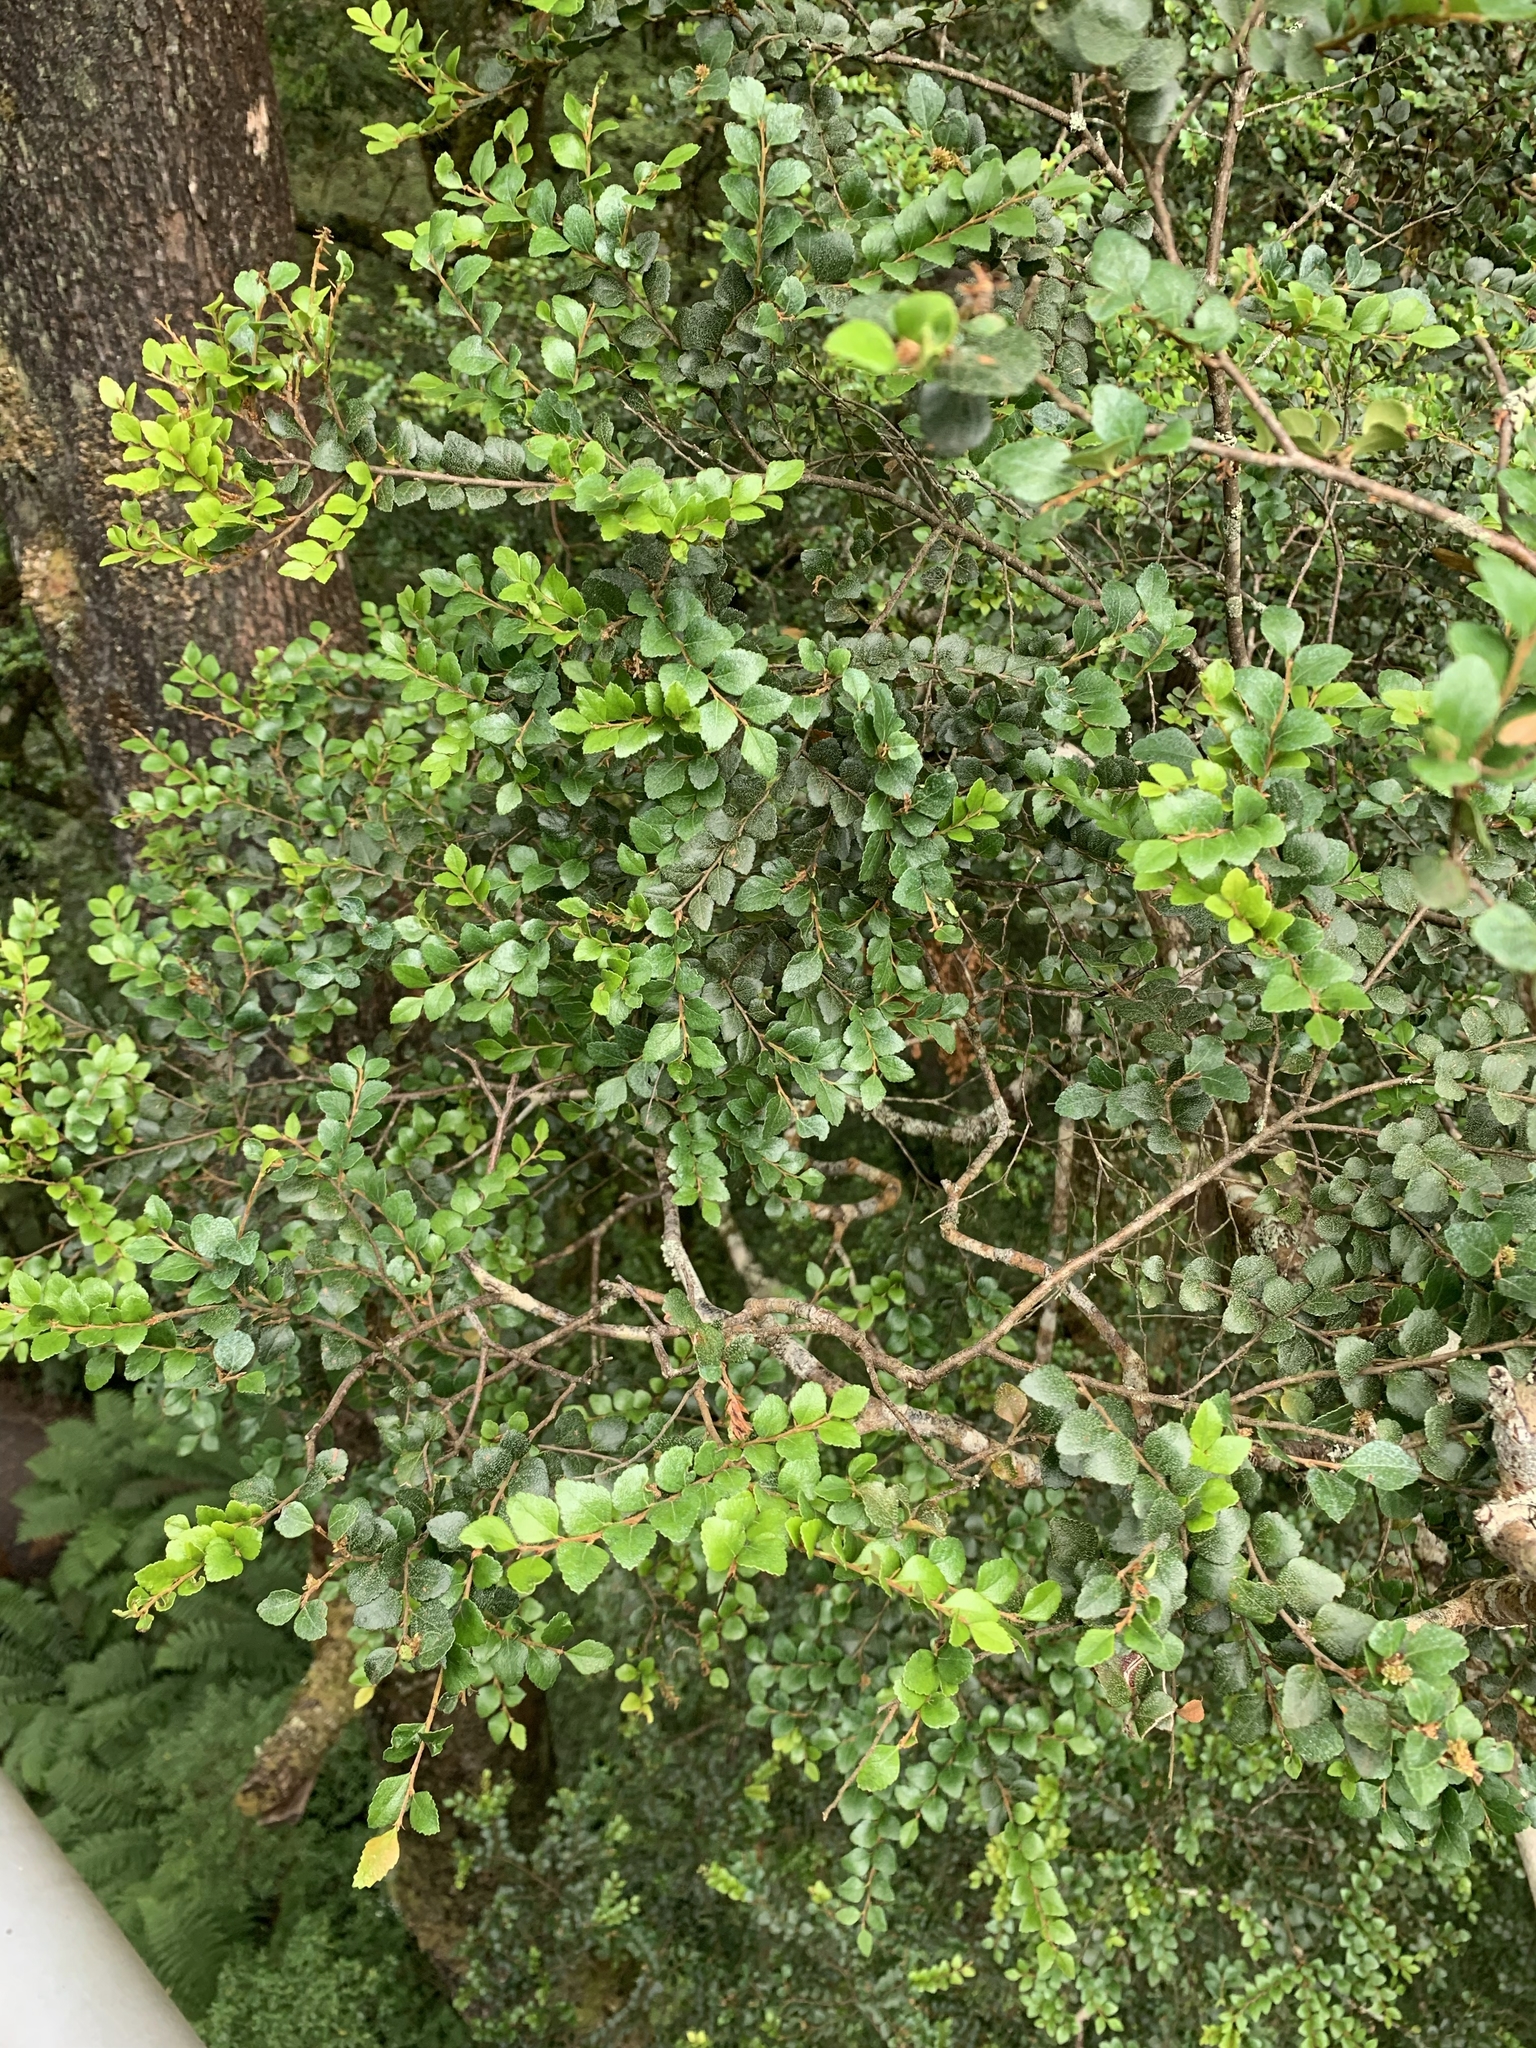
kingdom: Plantae
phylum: Tracheophyta
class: Magnoliopsida
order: Fagales
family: Nothofagaceae
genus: Nothofagus
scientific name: Nothofagus cunninghamii
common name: Myrtle beech
